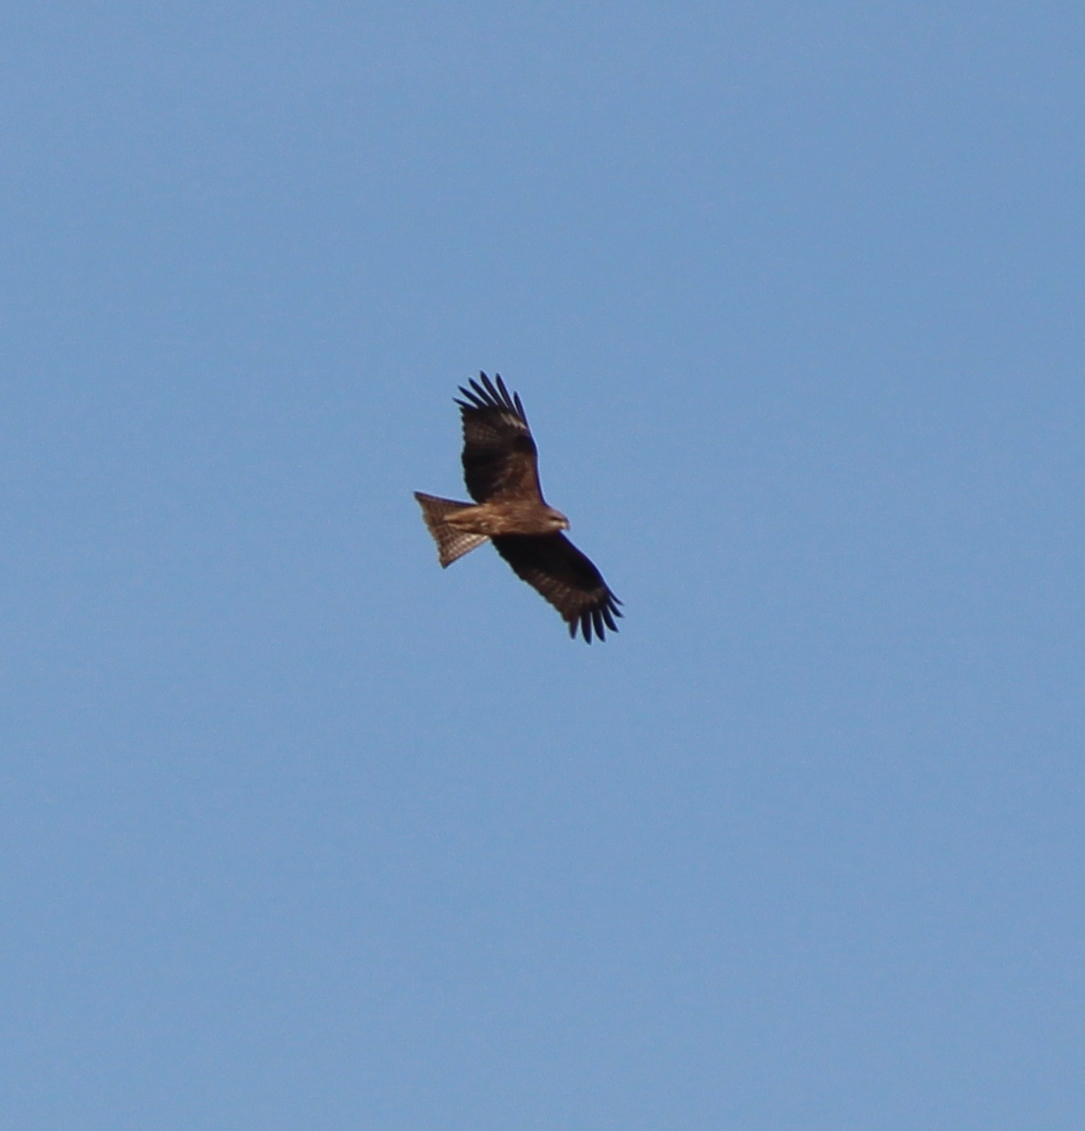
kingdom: Animalia
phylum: Chordata
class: Aves
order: Accipitriformes
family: Accipitridae
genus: Milvus
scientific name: Milvus migrans
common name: Black kite
